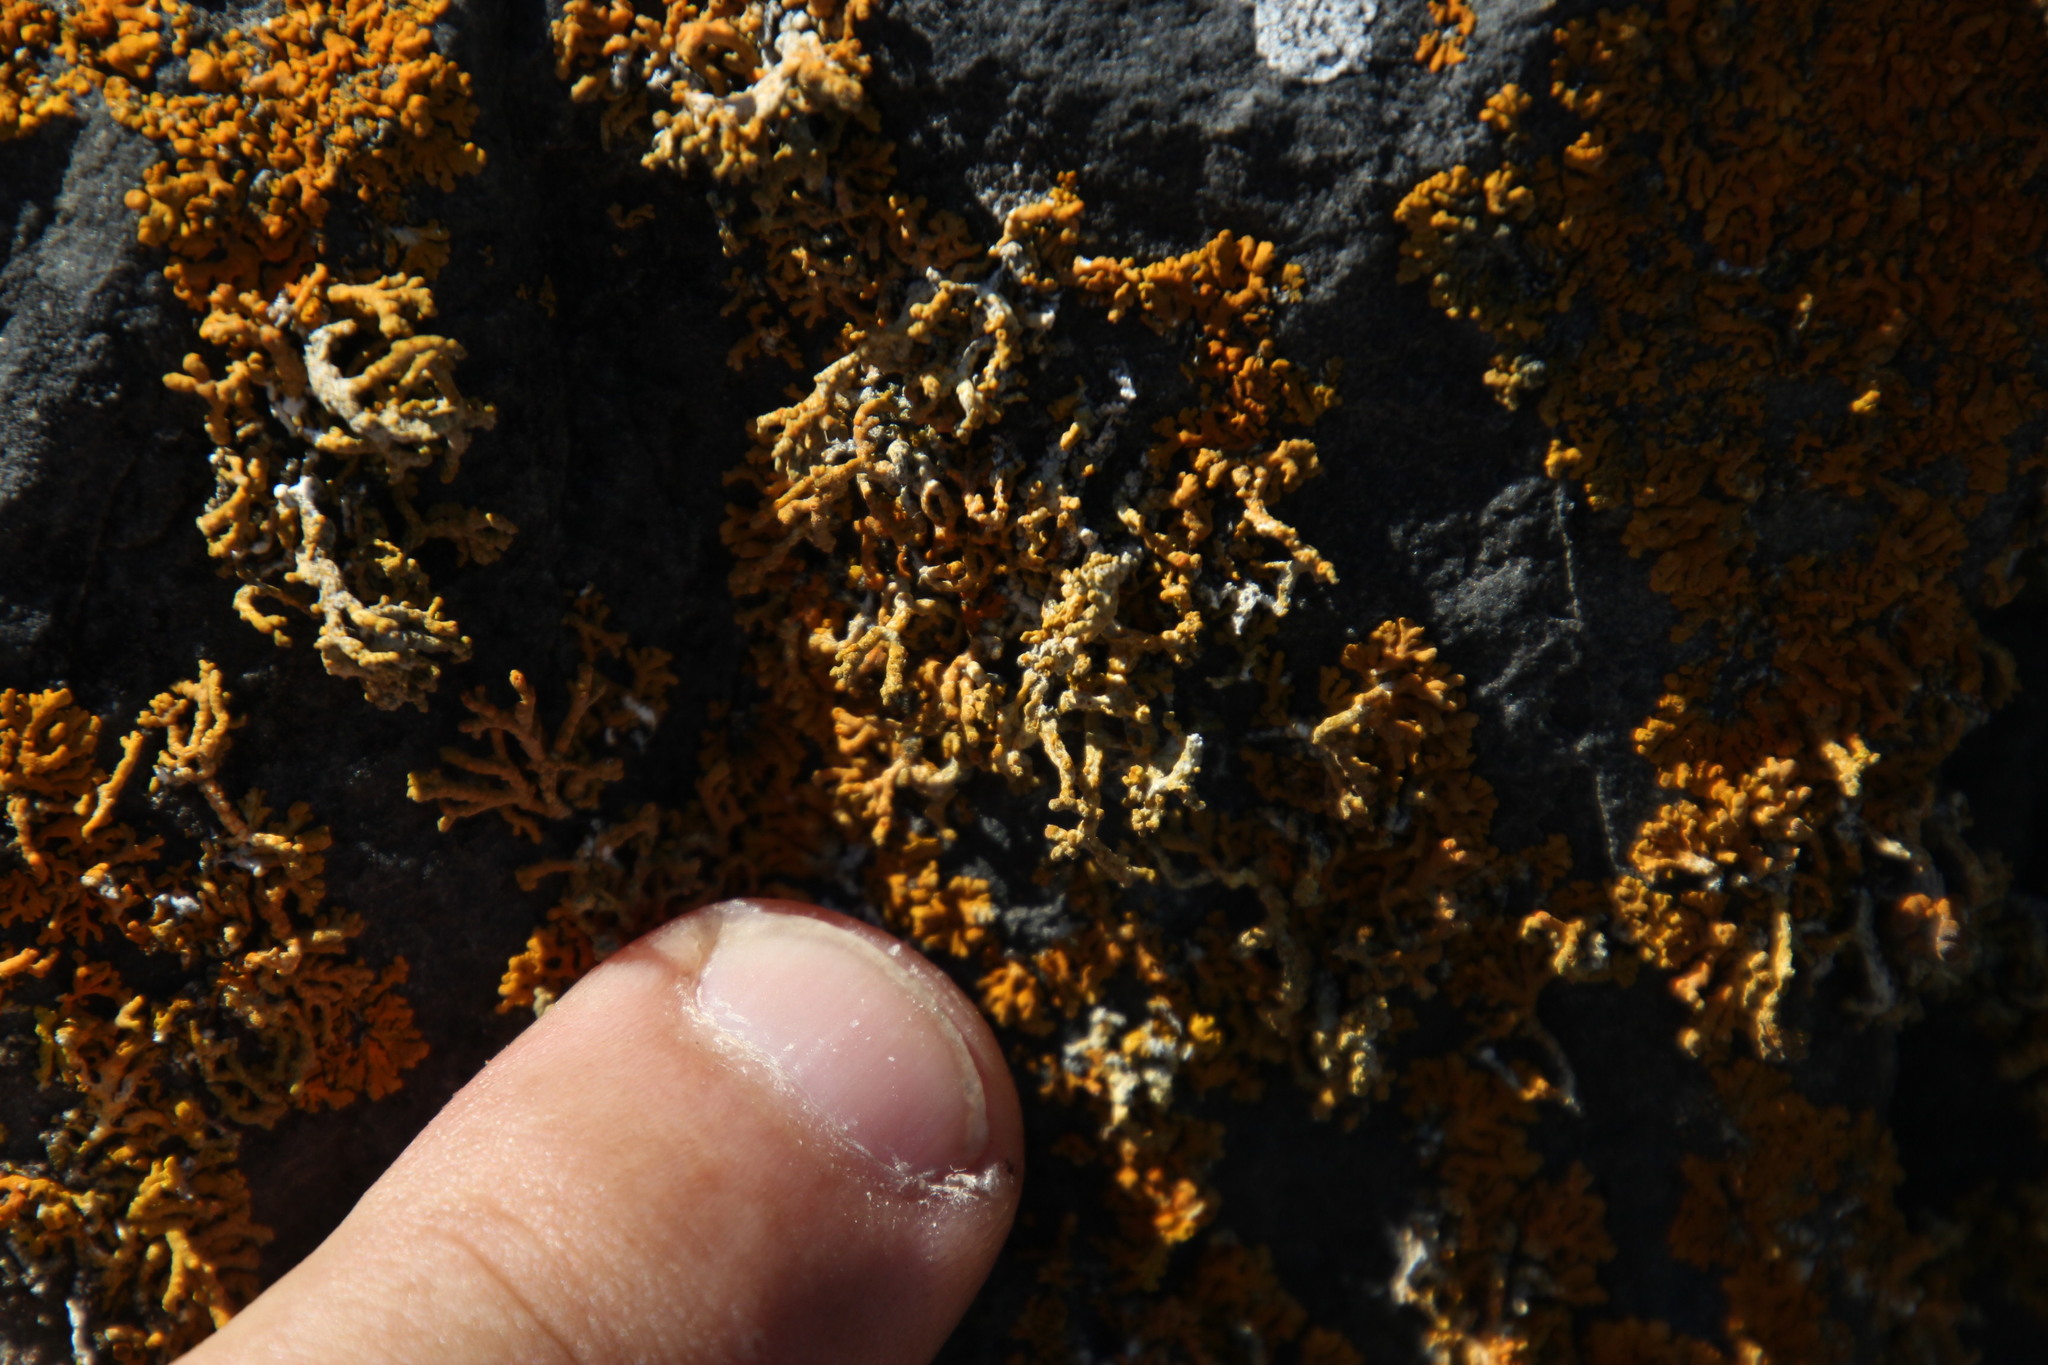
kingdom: Fungi
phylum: Ascomycota
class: Lecanoromycetes
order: Teloschistales
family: Teloschistaceae
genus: Xanthoria
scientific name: Xanthoria elegans
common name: Elegant sunburst lichen
